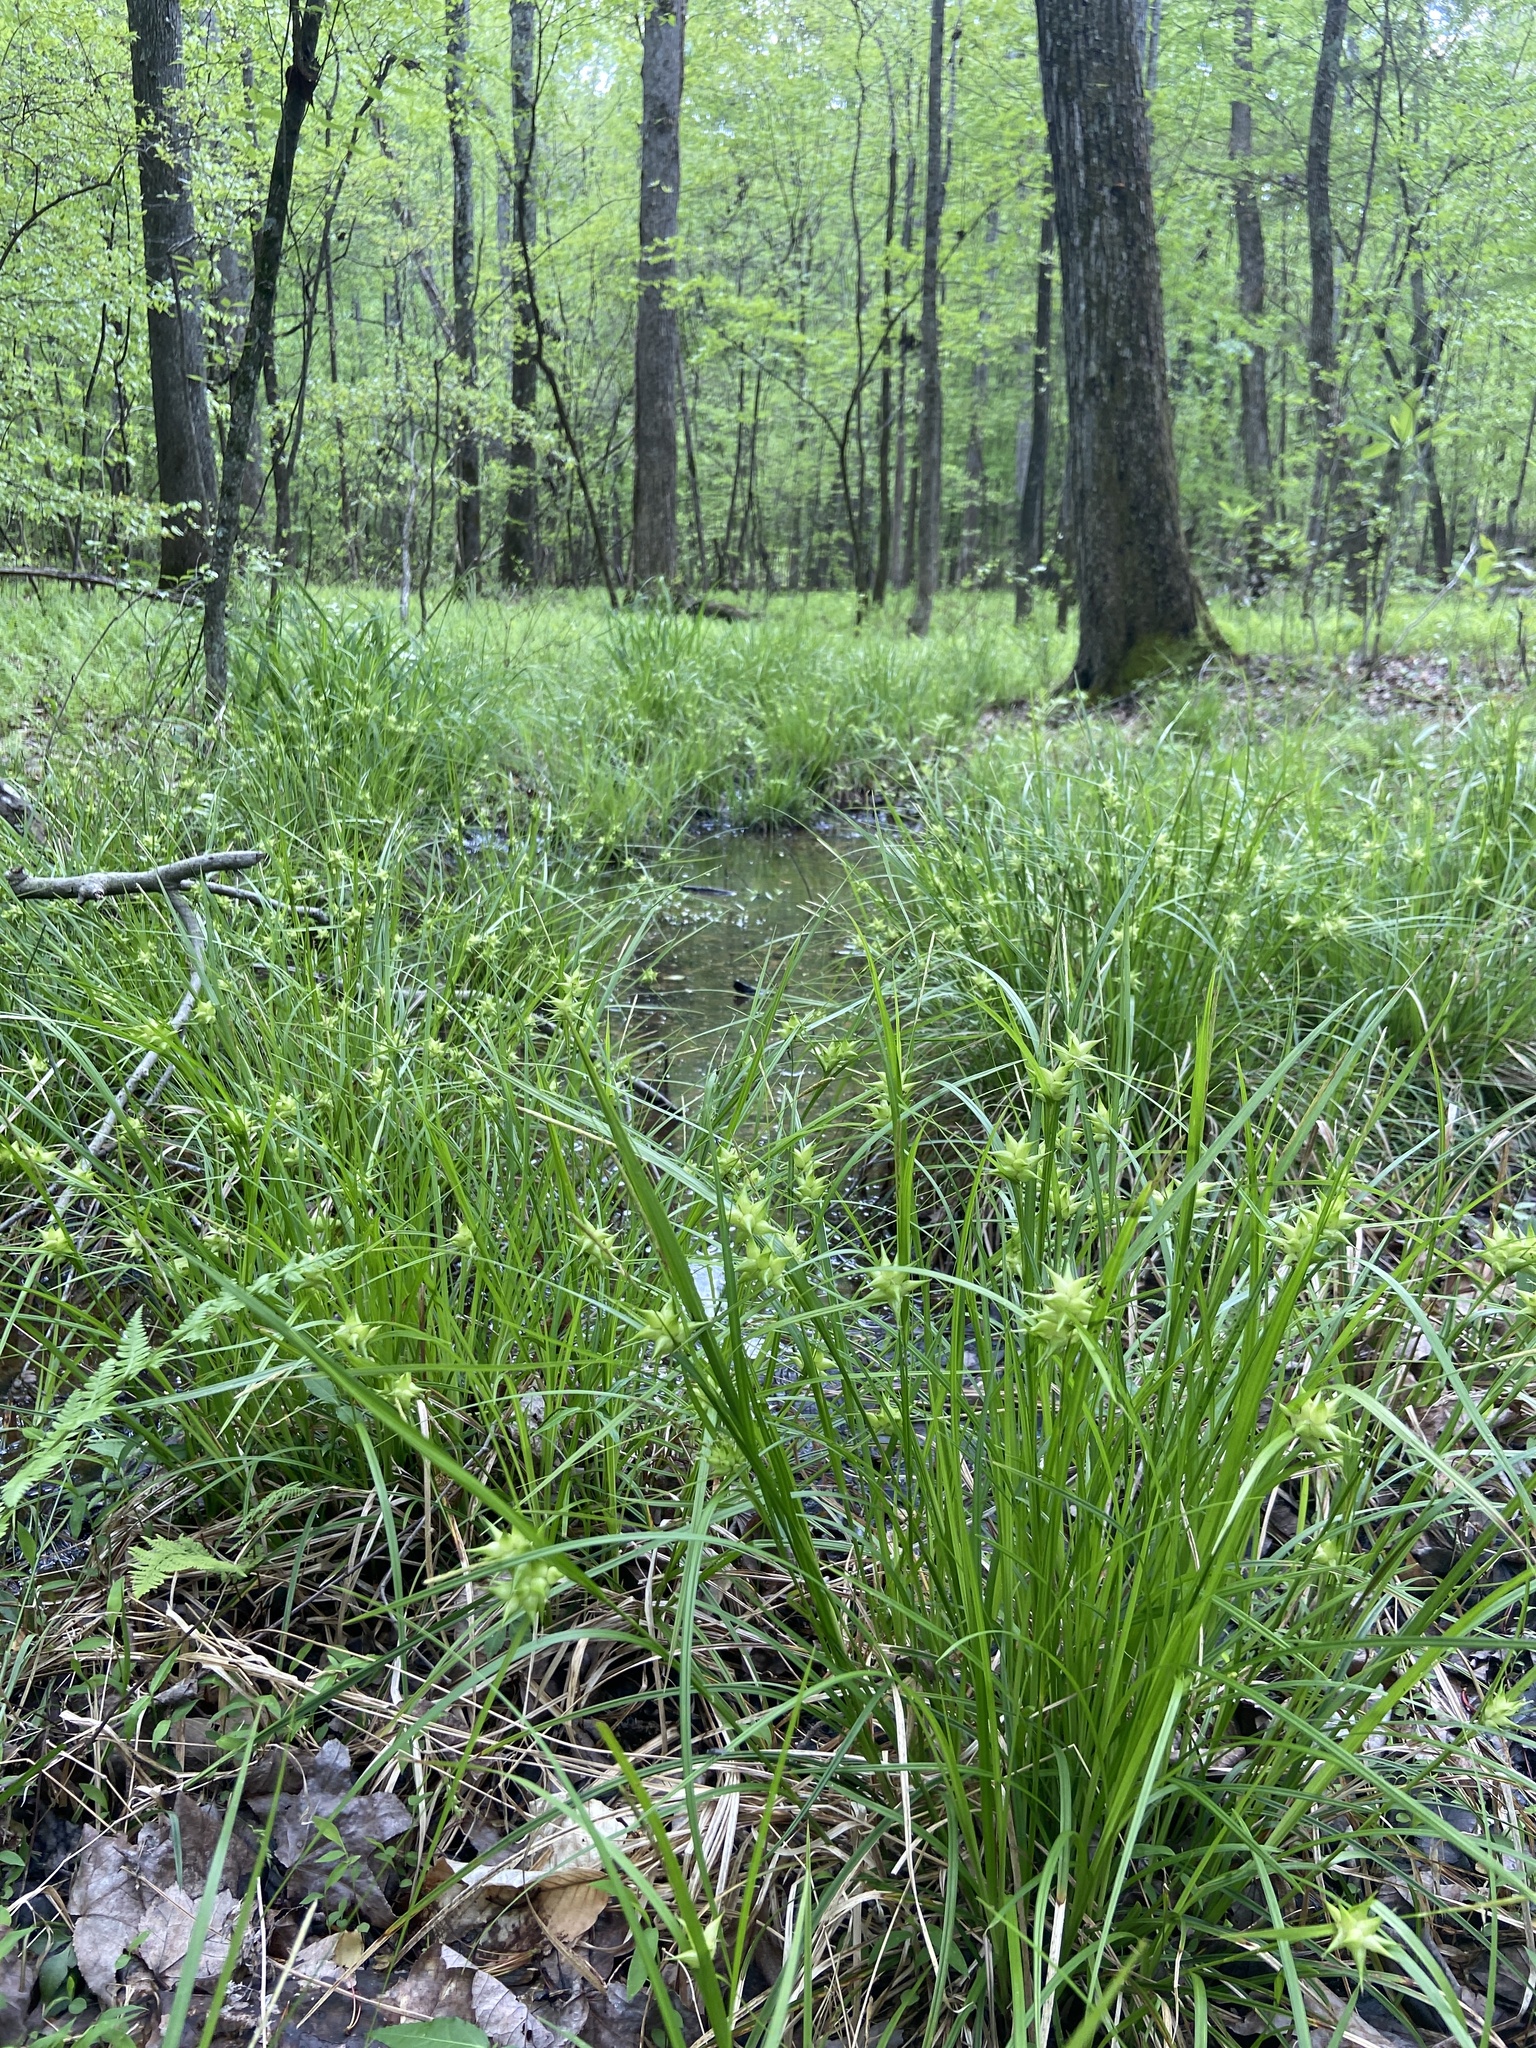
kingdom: Plantae
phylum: Tracheophyta
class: Liliopsida
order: Poales
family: Cyperaceae
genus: Carex
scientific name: Carex intumescens
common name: Greater bladder sedge
